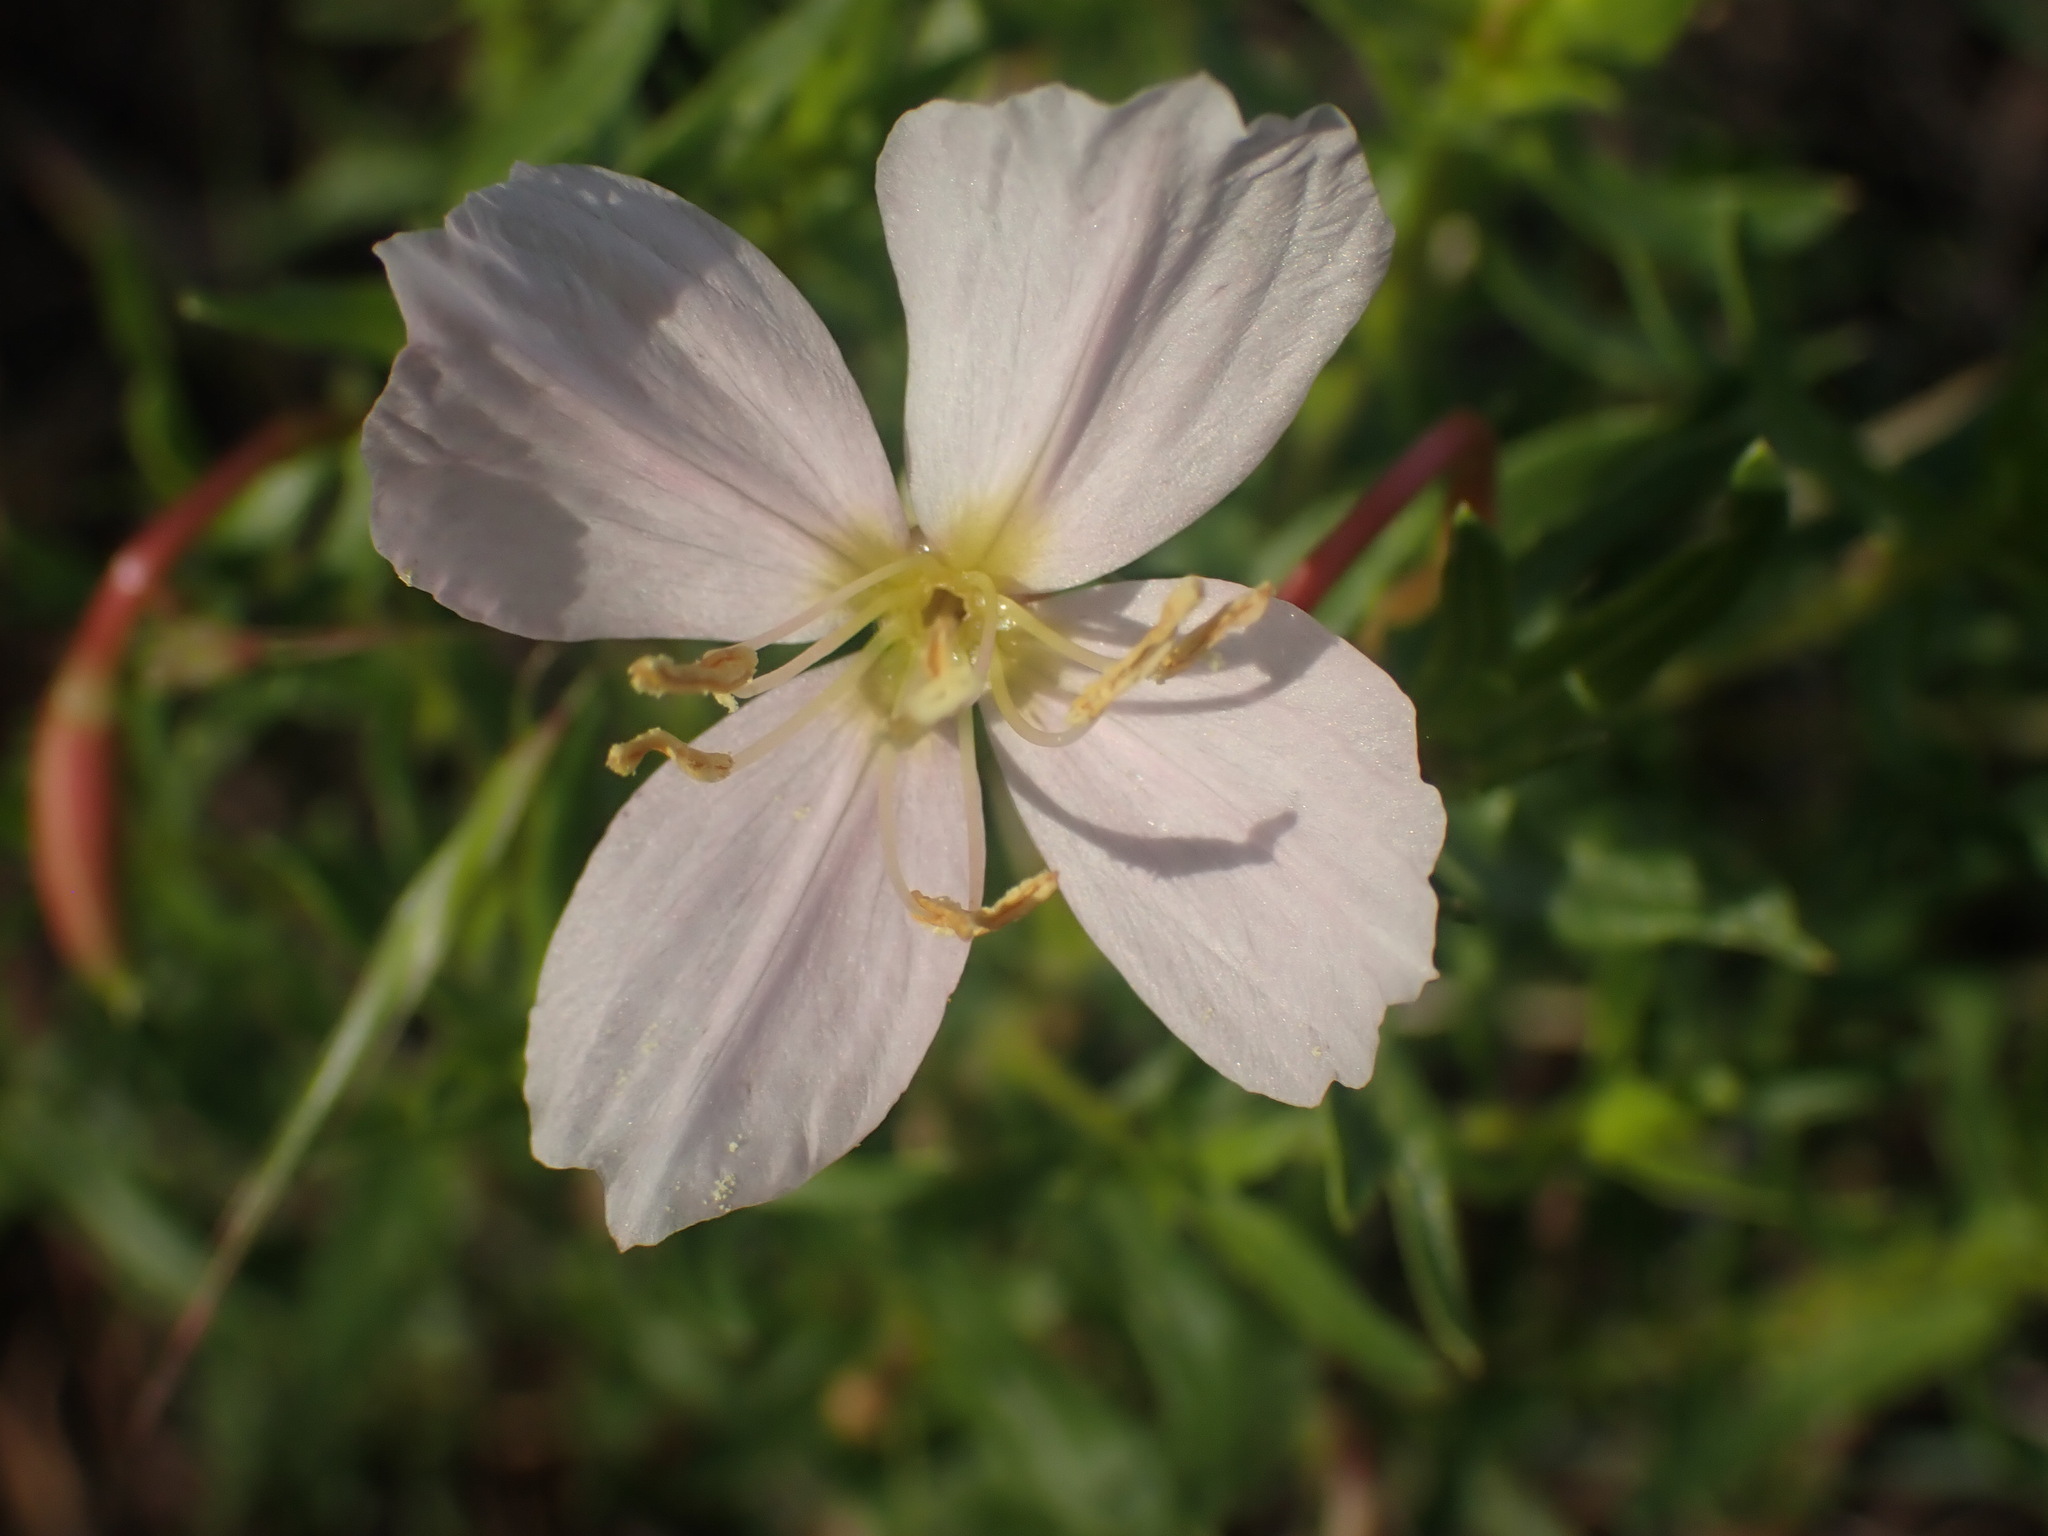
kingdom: Plantae
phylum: Tracheophyta
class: Magnoliopsida
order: Myrtales
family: Onagraceae
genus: Oenothera
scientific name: Oenothera pallida
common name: Pale evening-primrose
